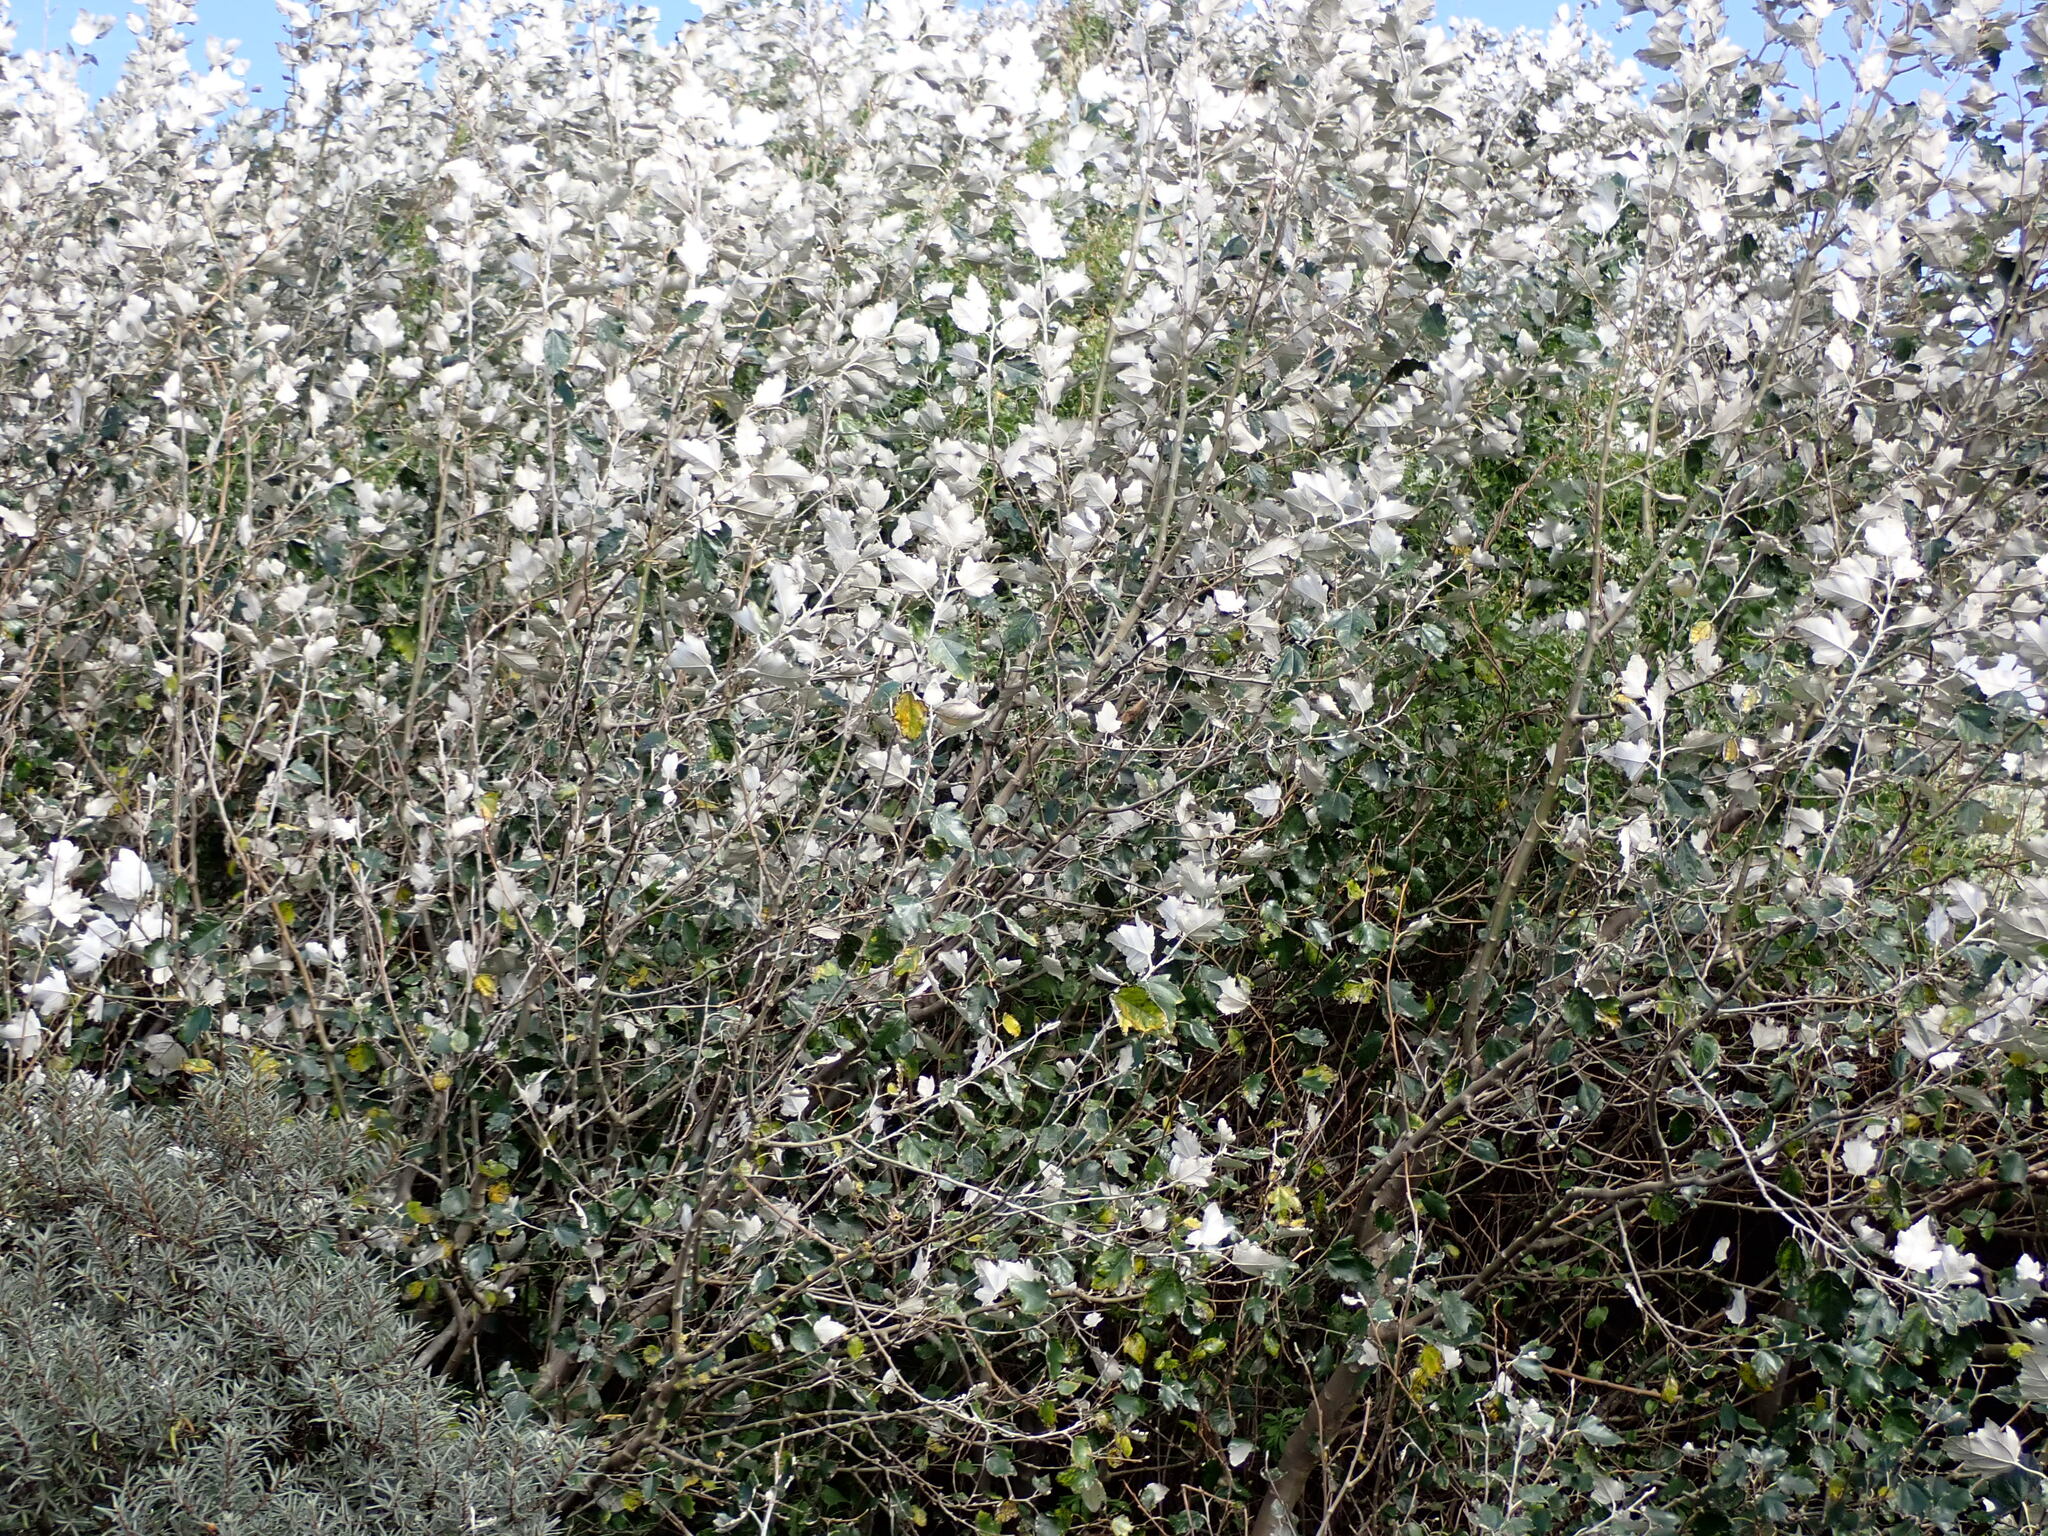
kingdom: Plantae
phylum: Tracheophyta
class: Magnoliopsida
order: Malpighiales
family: Salicaceae
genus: Populus
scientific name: Populus alba
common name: White poplar
